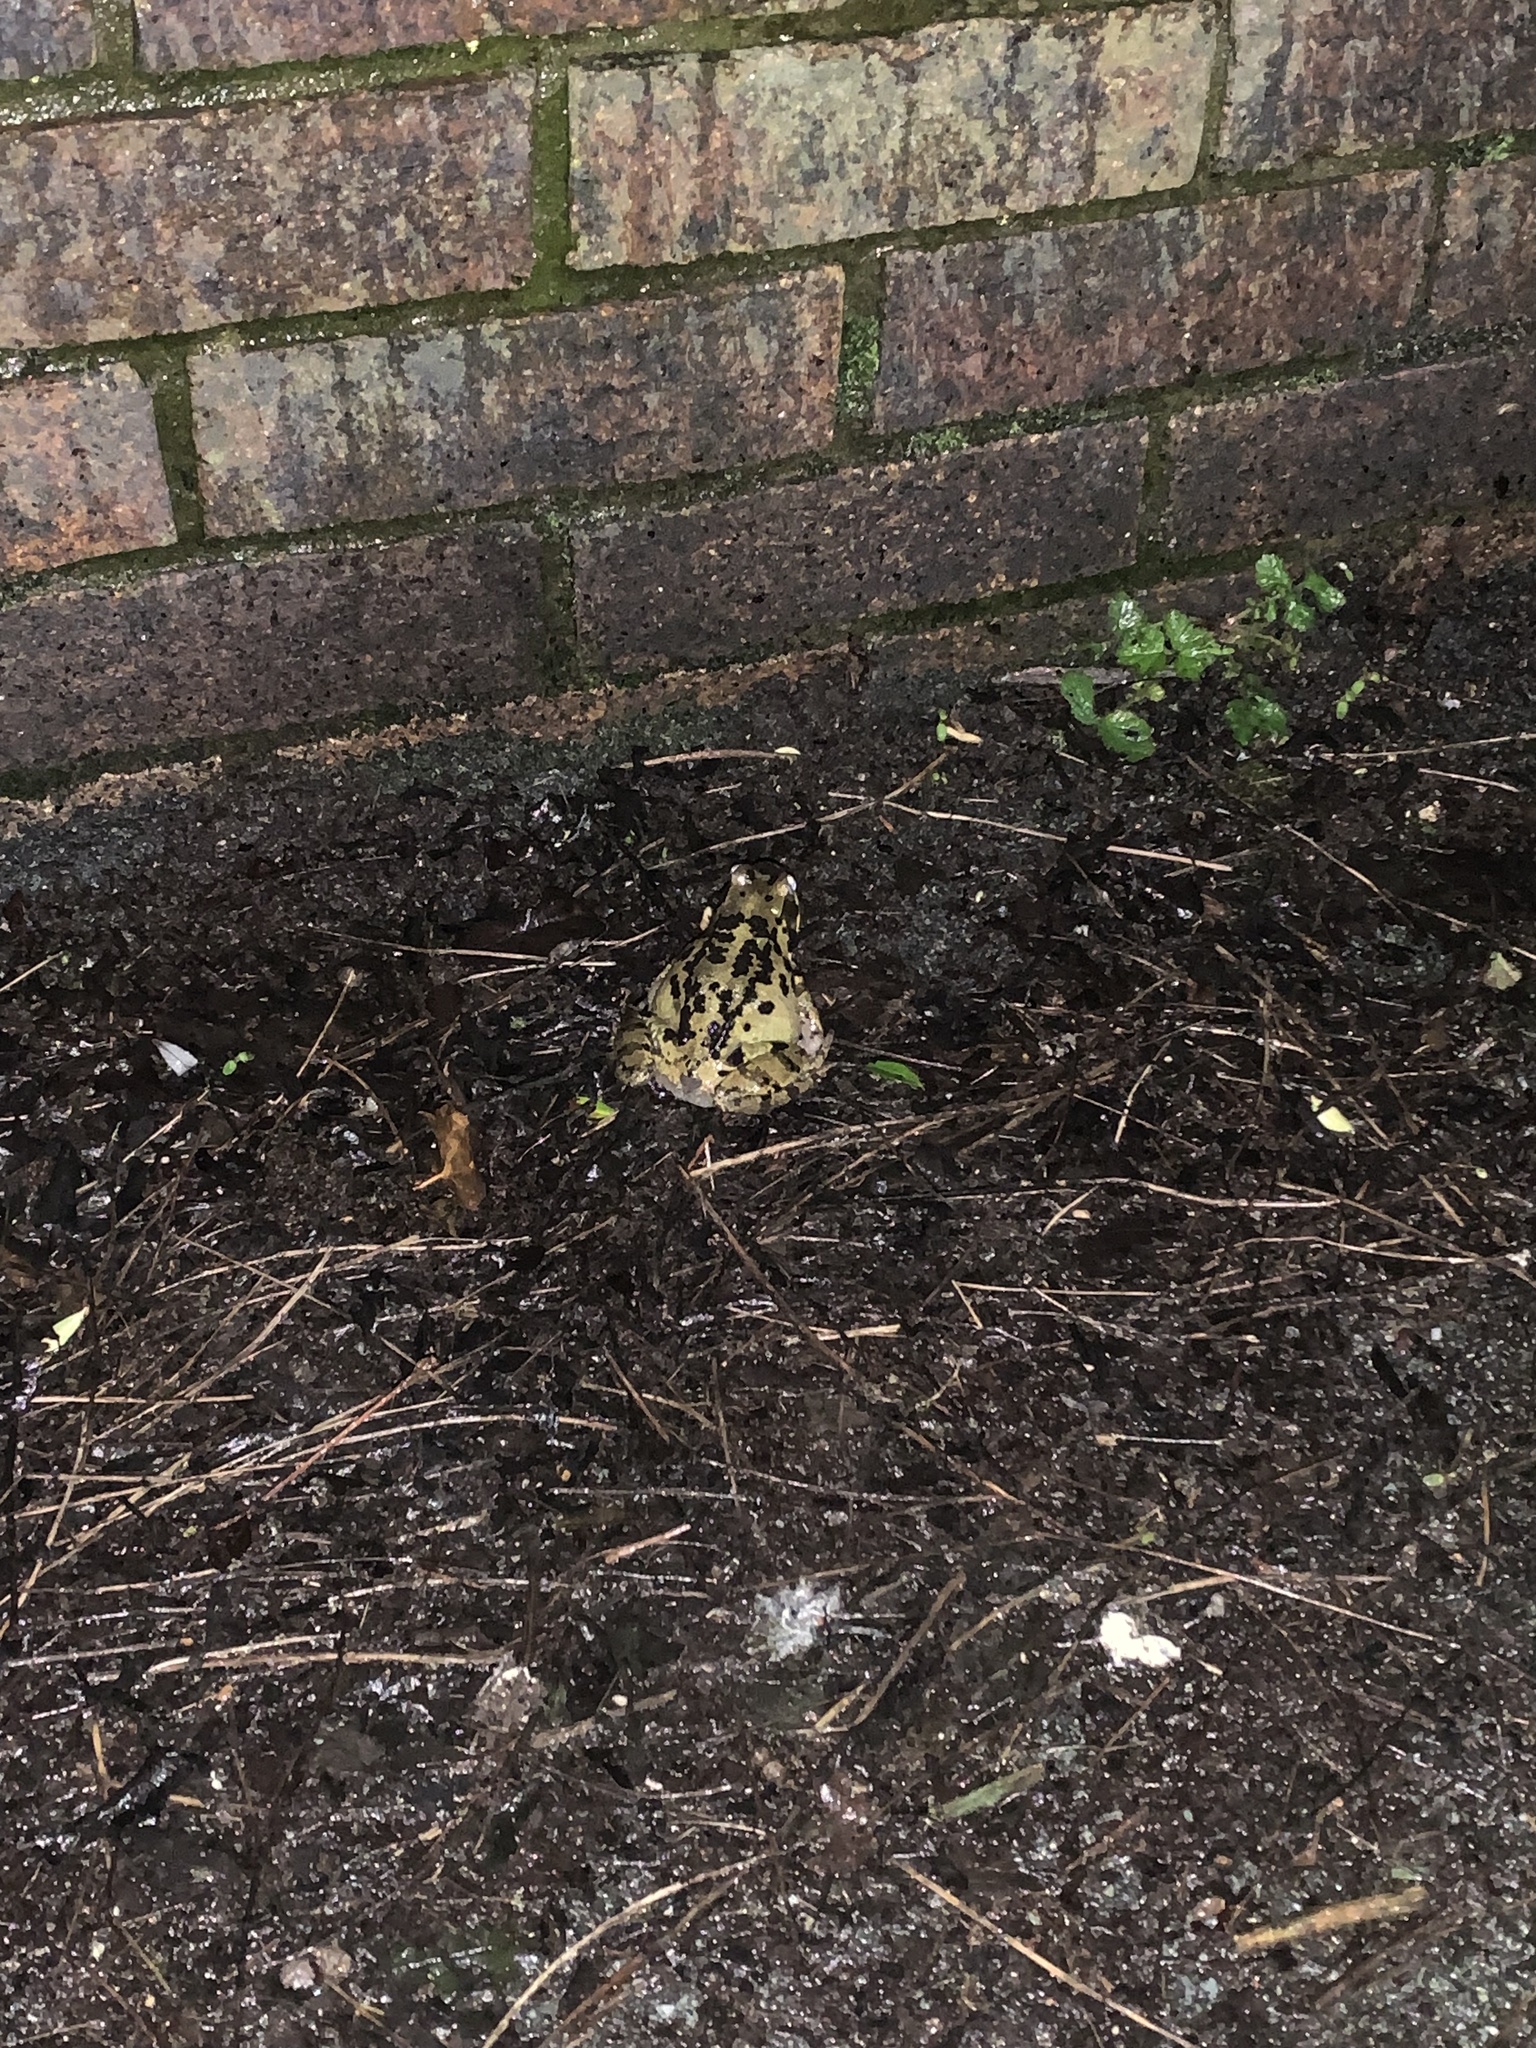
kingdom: Animalia
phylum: Chordata
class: Amphibia
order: Anura
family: Ranidae
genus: Rana
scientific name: Rana temporaria
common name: Common frog
